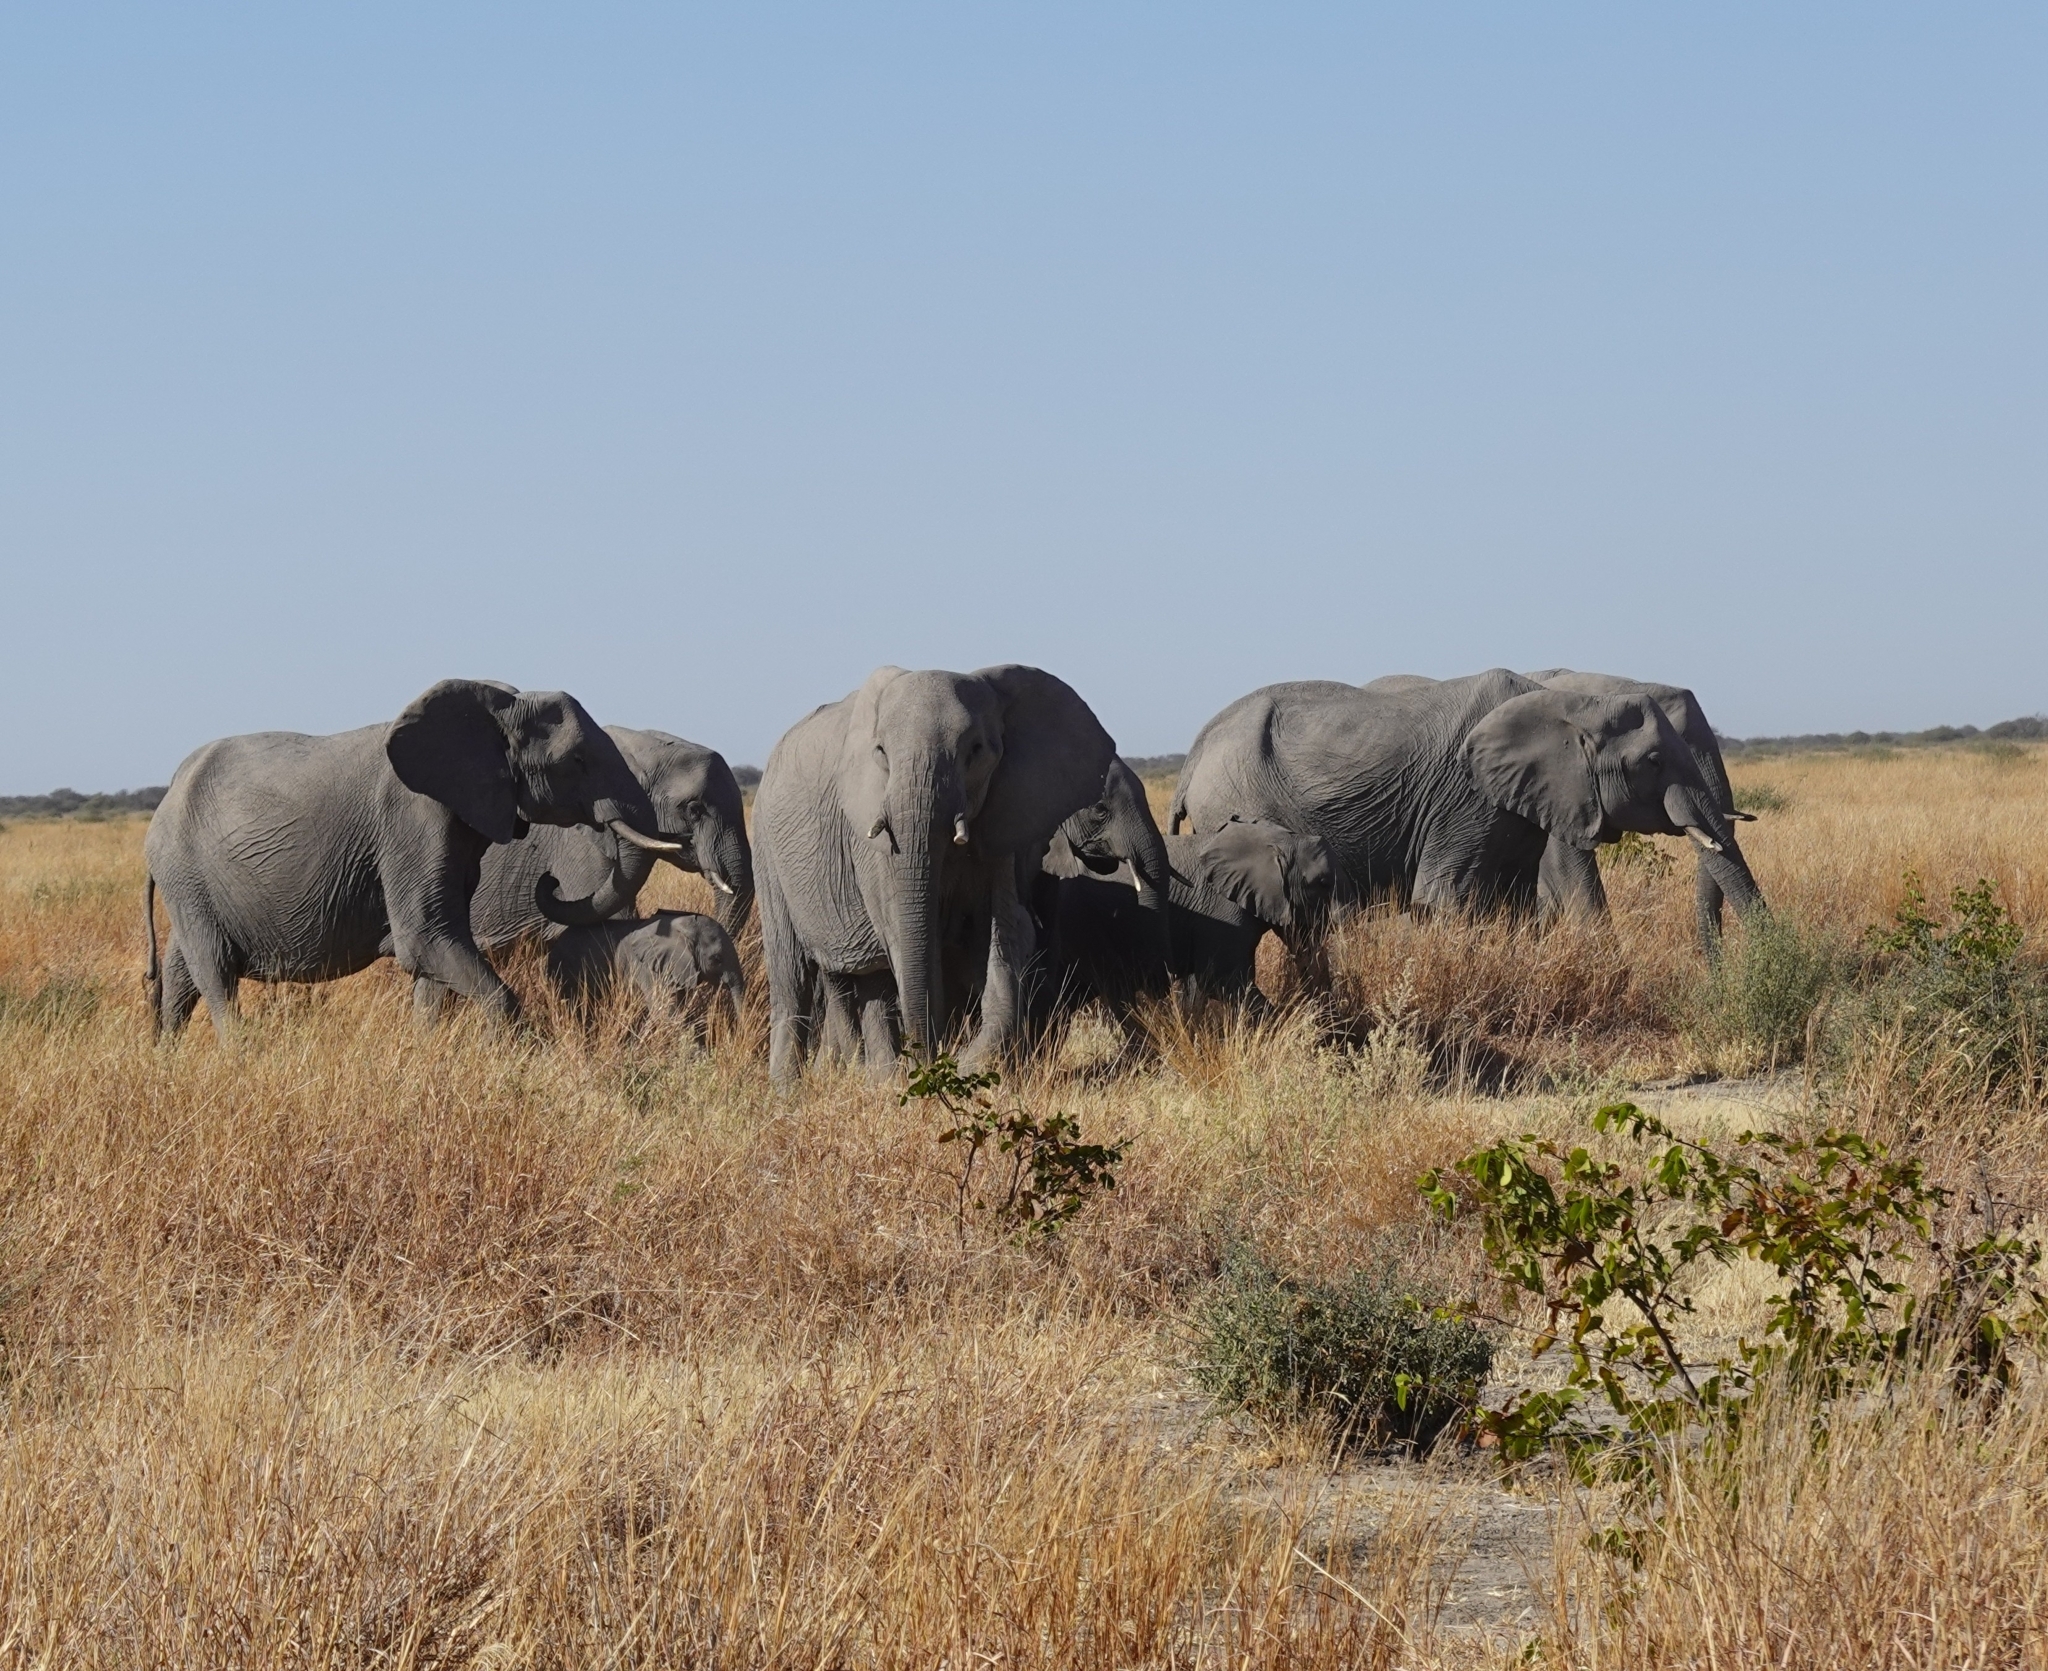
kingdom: Animalia
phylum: Chordata
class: Mammalia
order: Proboscidea
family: Elephantidae
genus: Loxodonta
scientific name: Loxodonta africana
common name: African elephant
